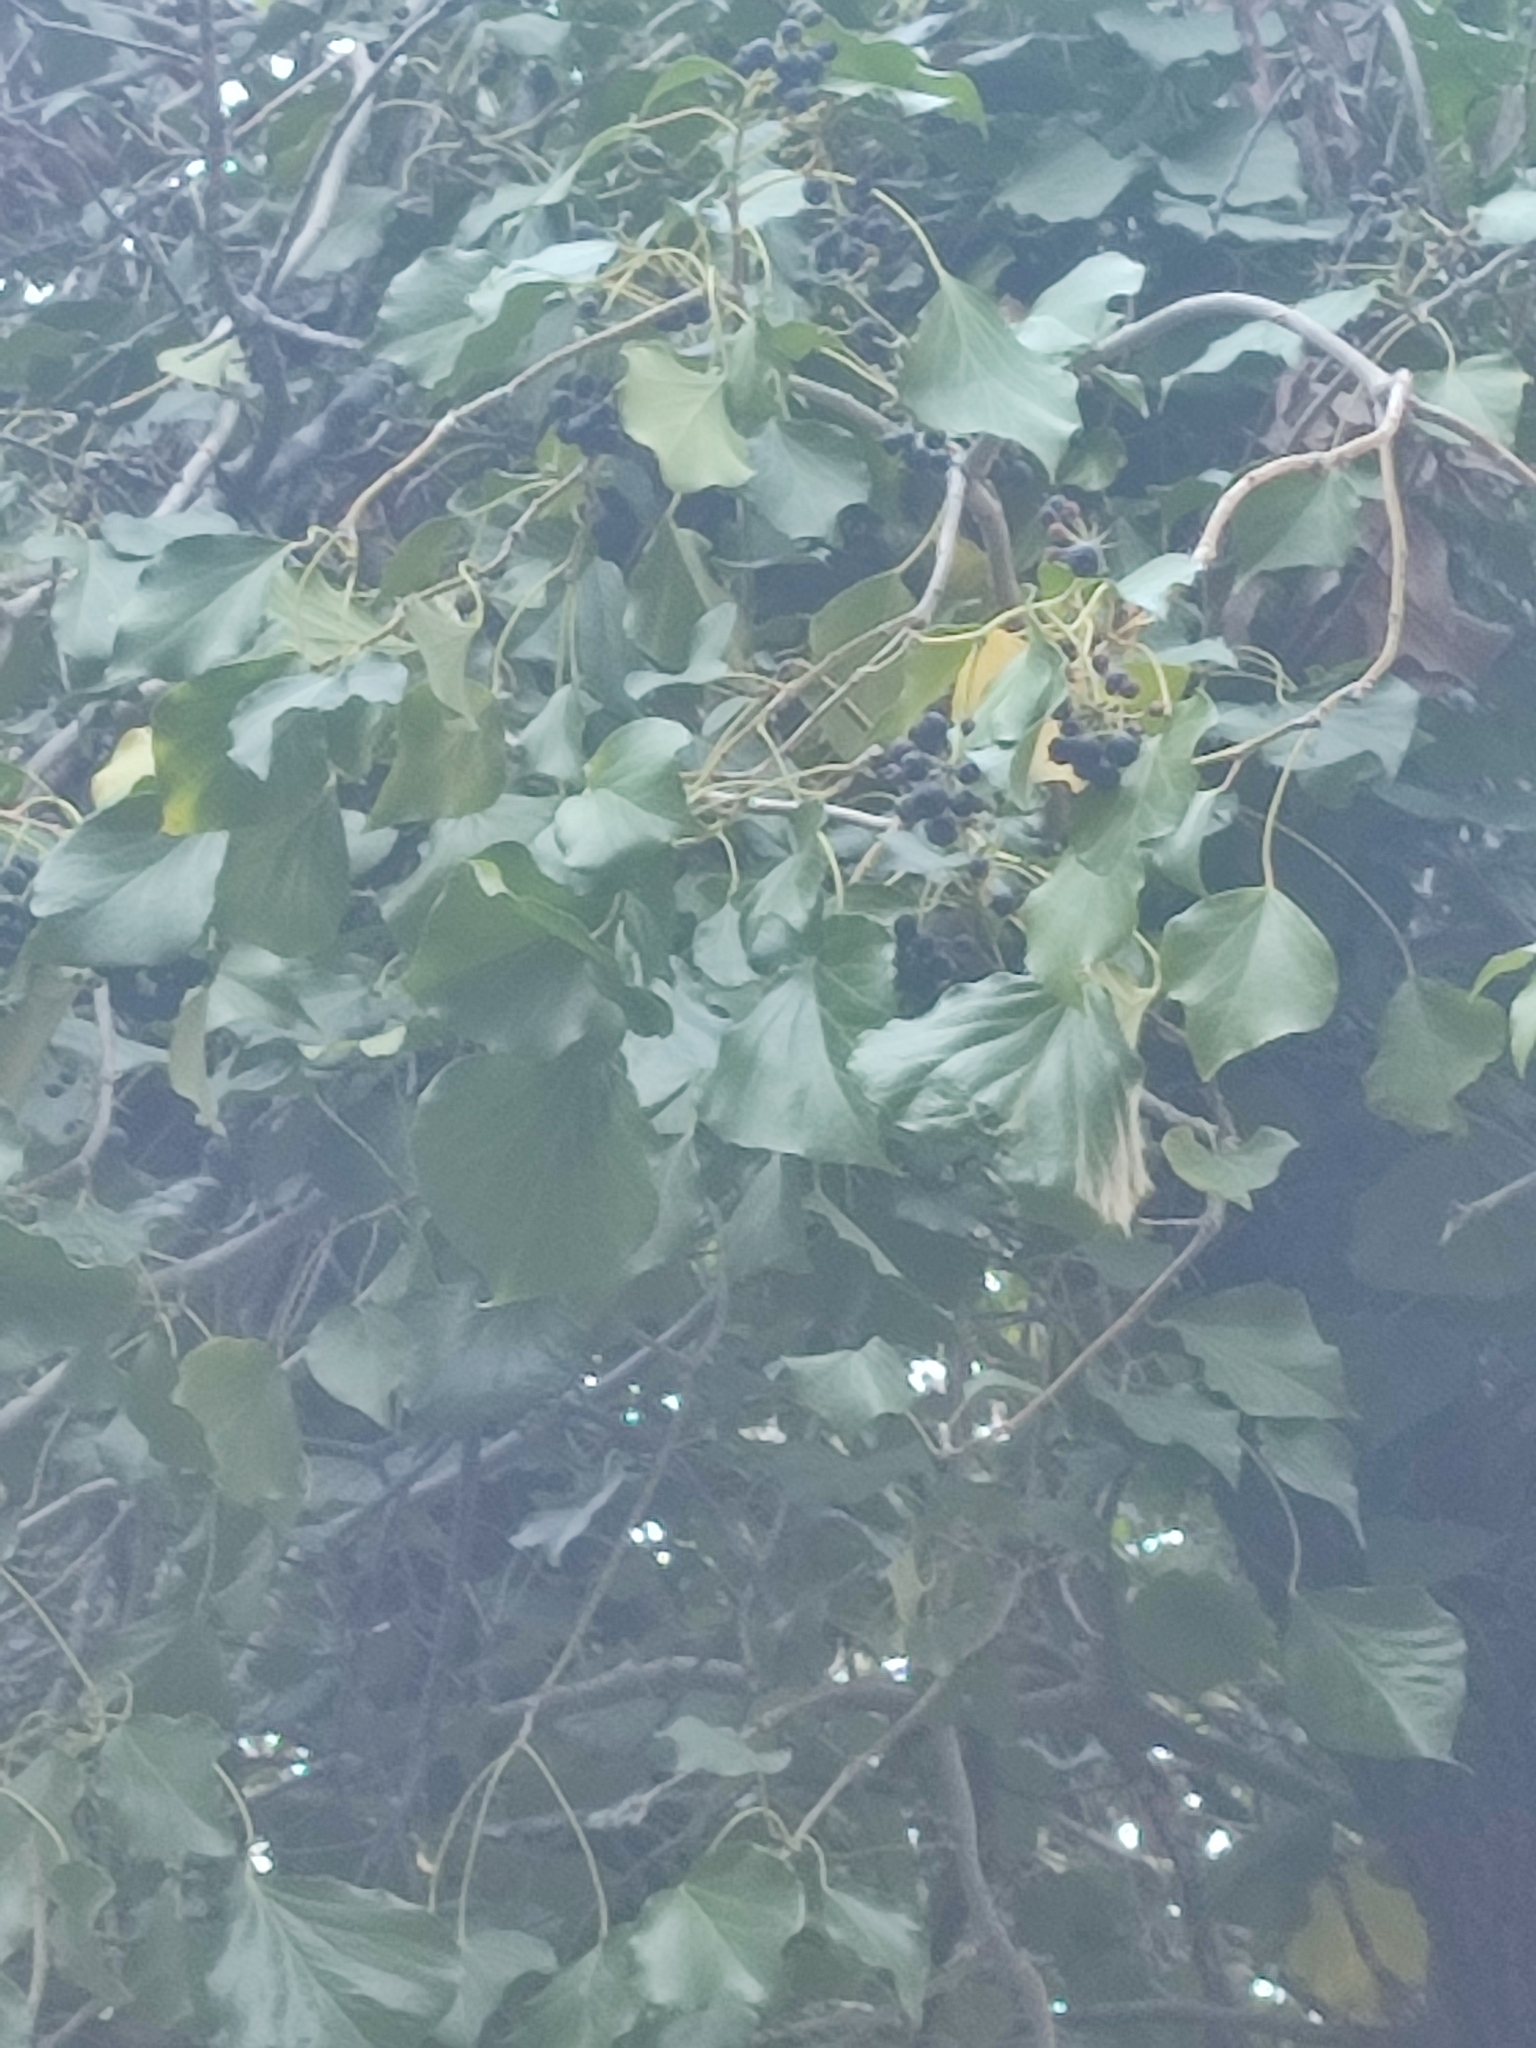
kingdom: Plantae
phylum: Tracheophyta
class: Magnoliopsida
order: Apiales
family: Araliaceae
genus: Hedera
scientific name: Hedera helix
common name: Ivy
